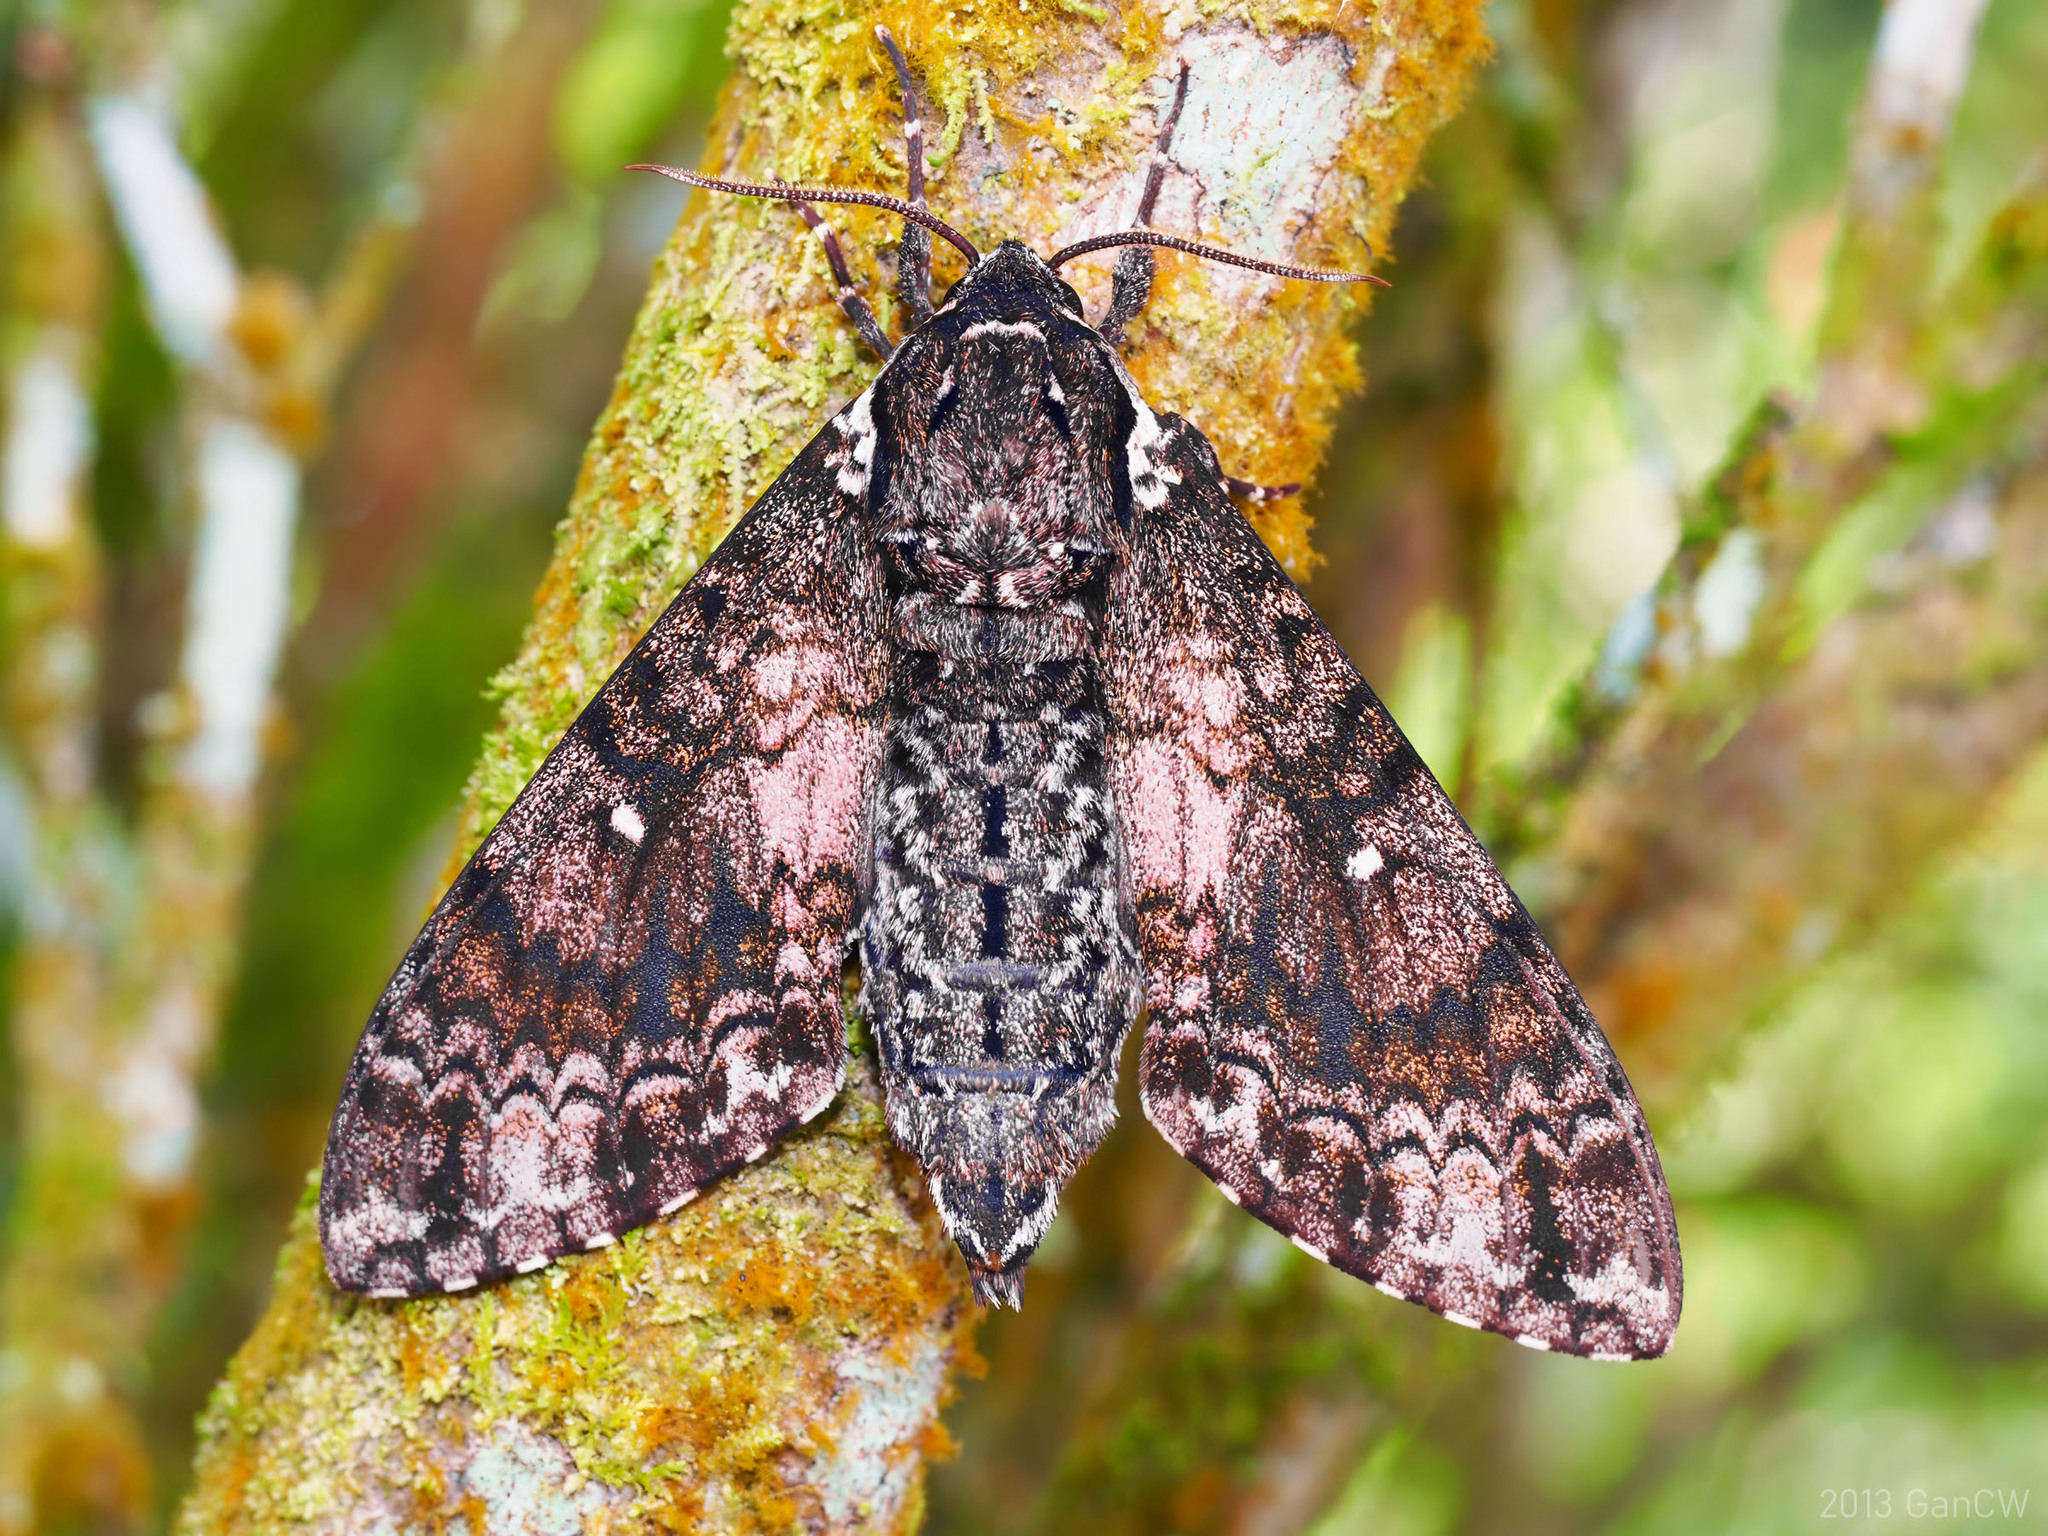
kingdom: Animalia
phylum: Arthropoda
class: Insecta
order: Lepidoptera
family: Sphingidae
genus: Dolbina
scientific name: Dolbina borneensis
